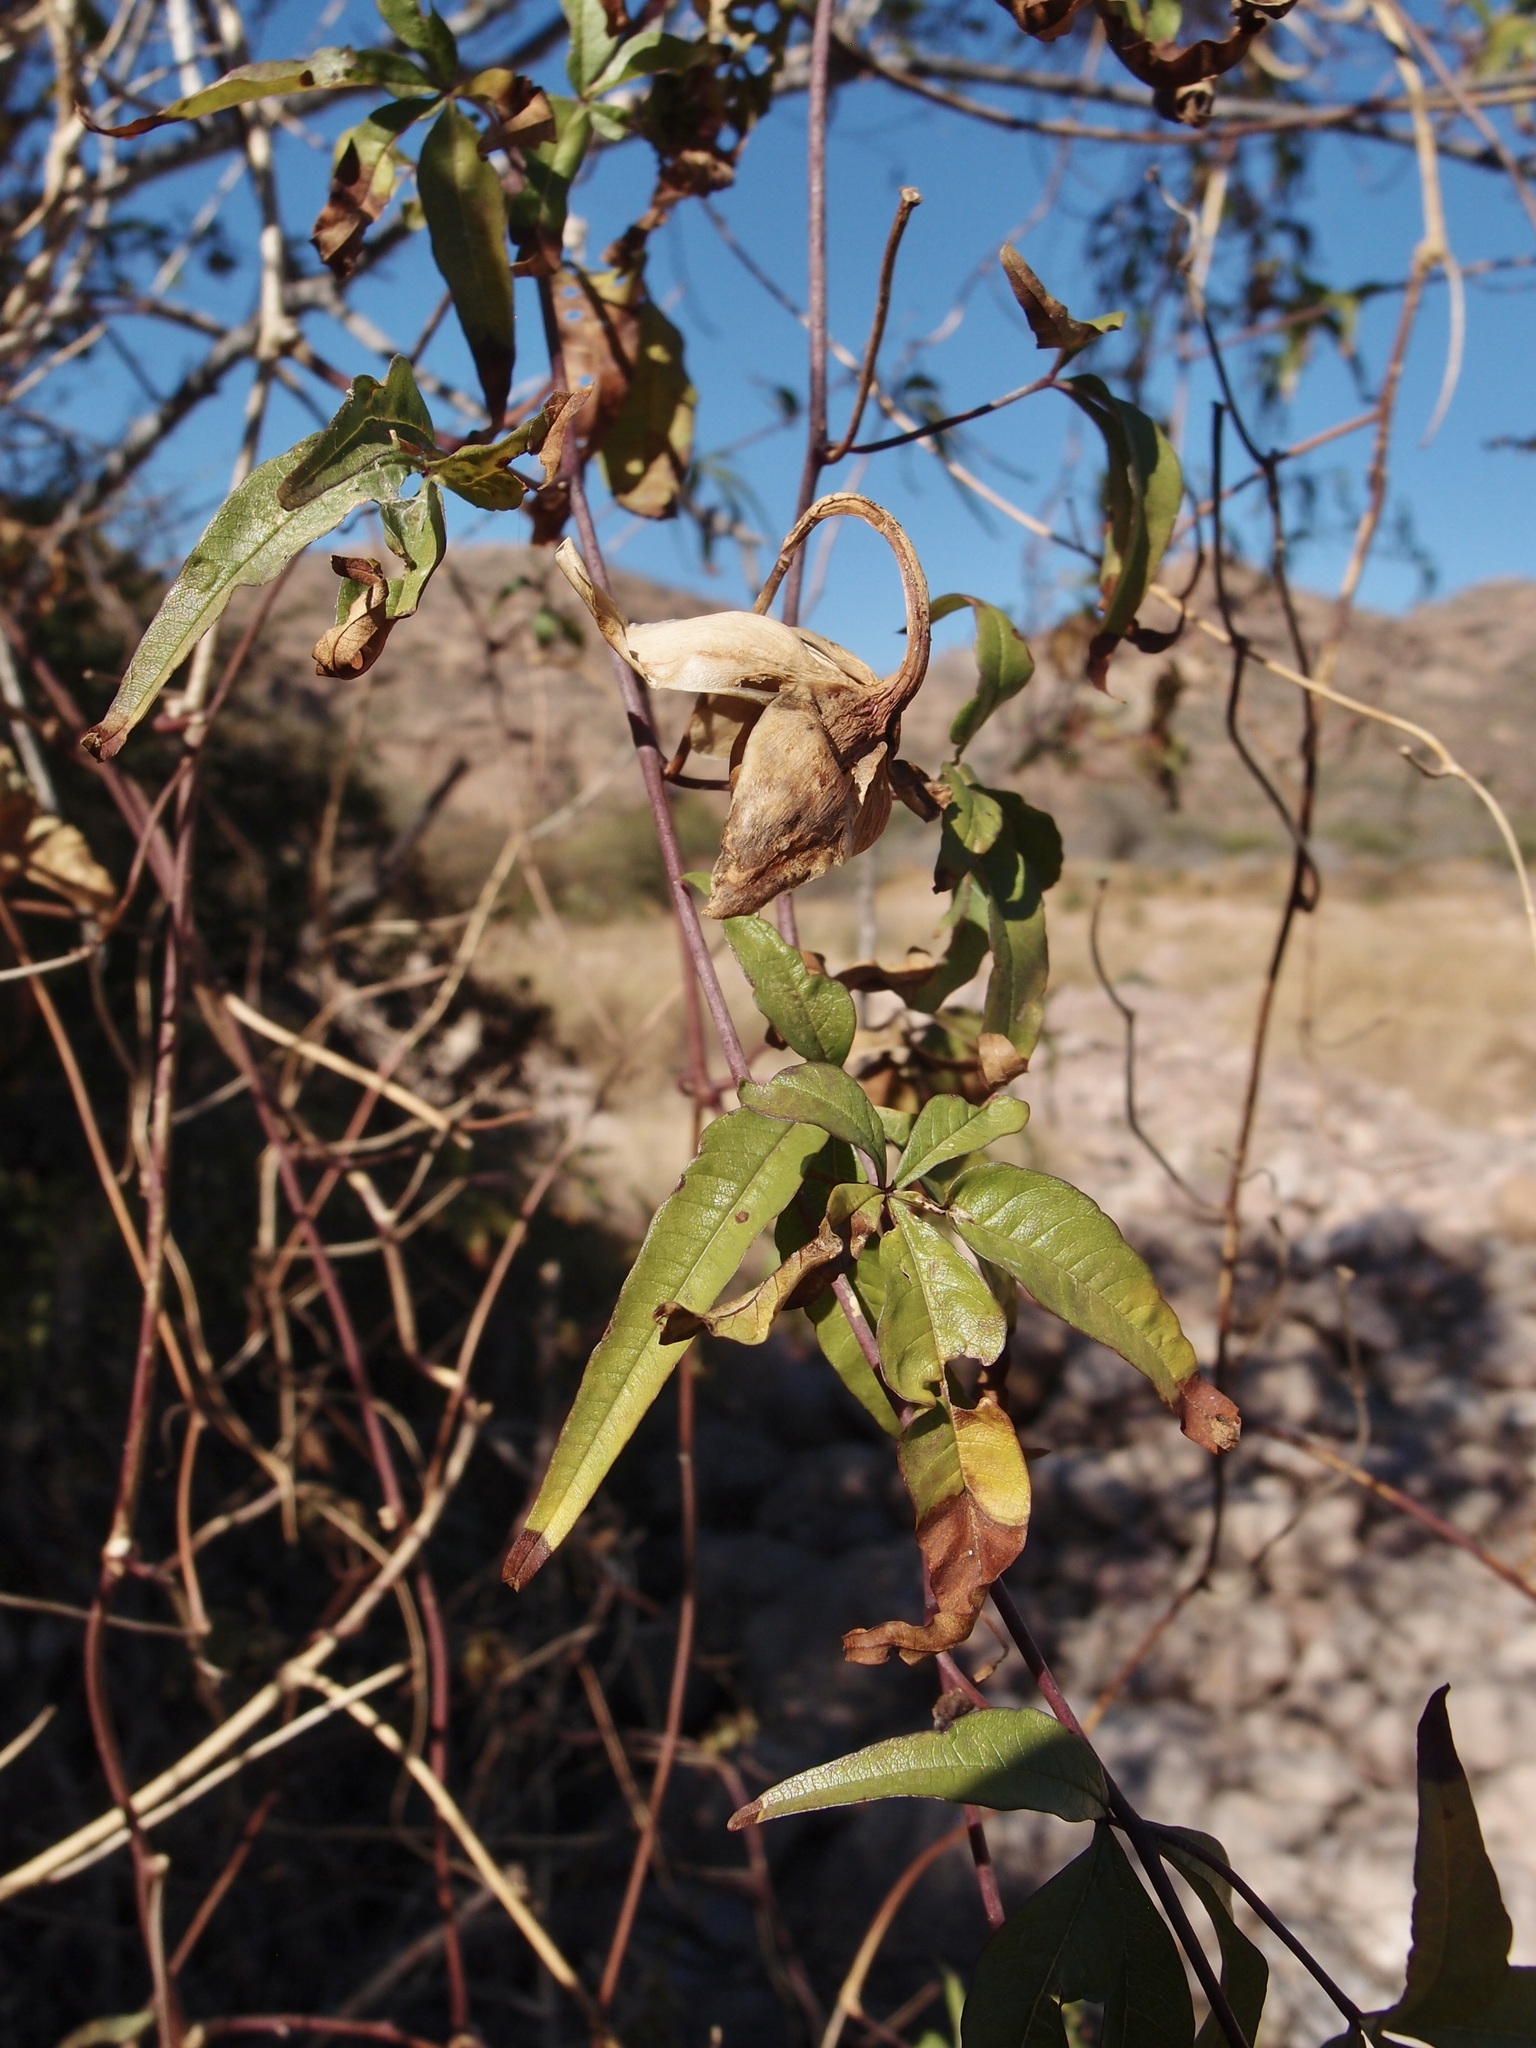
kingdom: Plantae
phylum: Tracheophyta
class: Magnoliopsida
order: Solanales
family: Convolvulaceae
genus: Distimake
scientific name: Distimake palmeri
